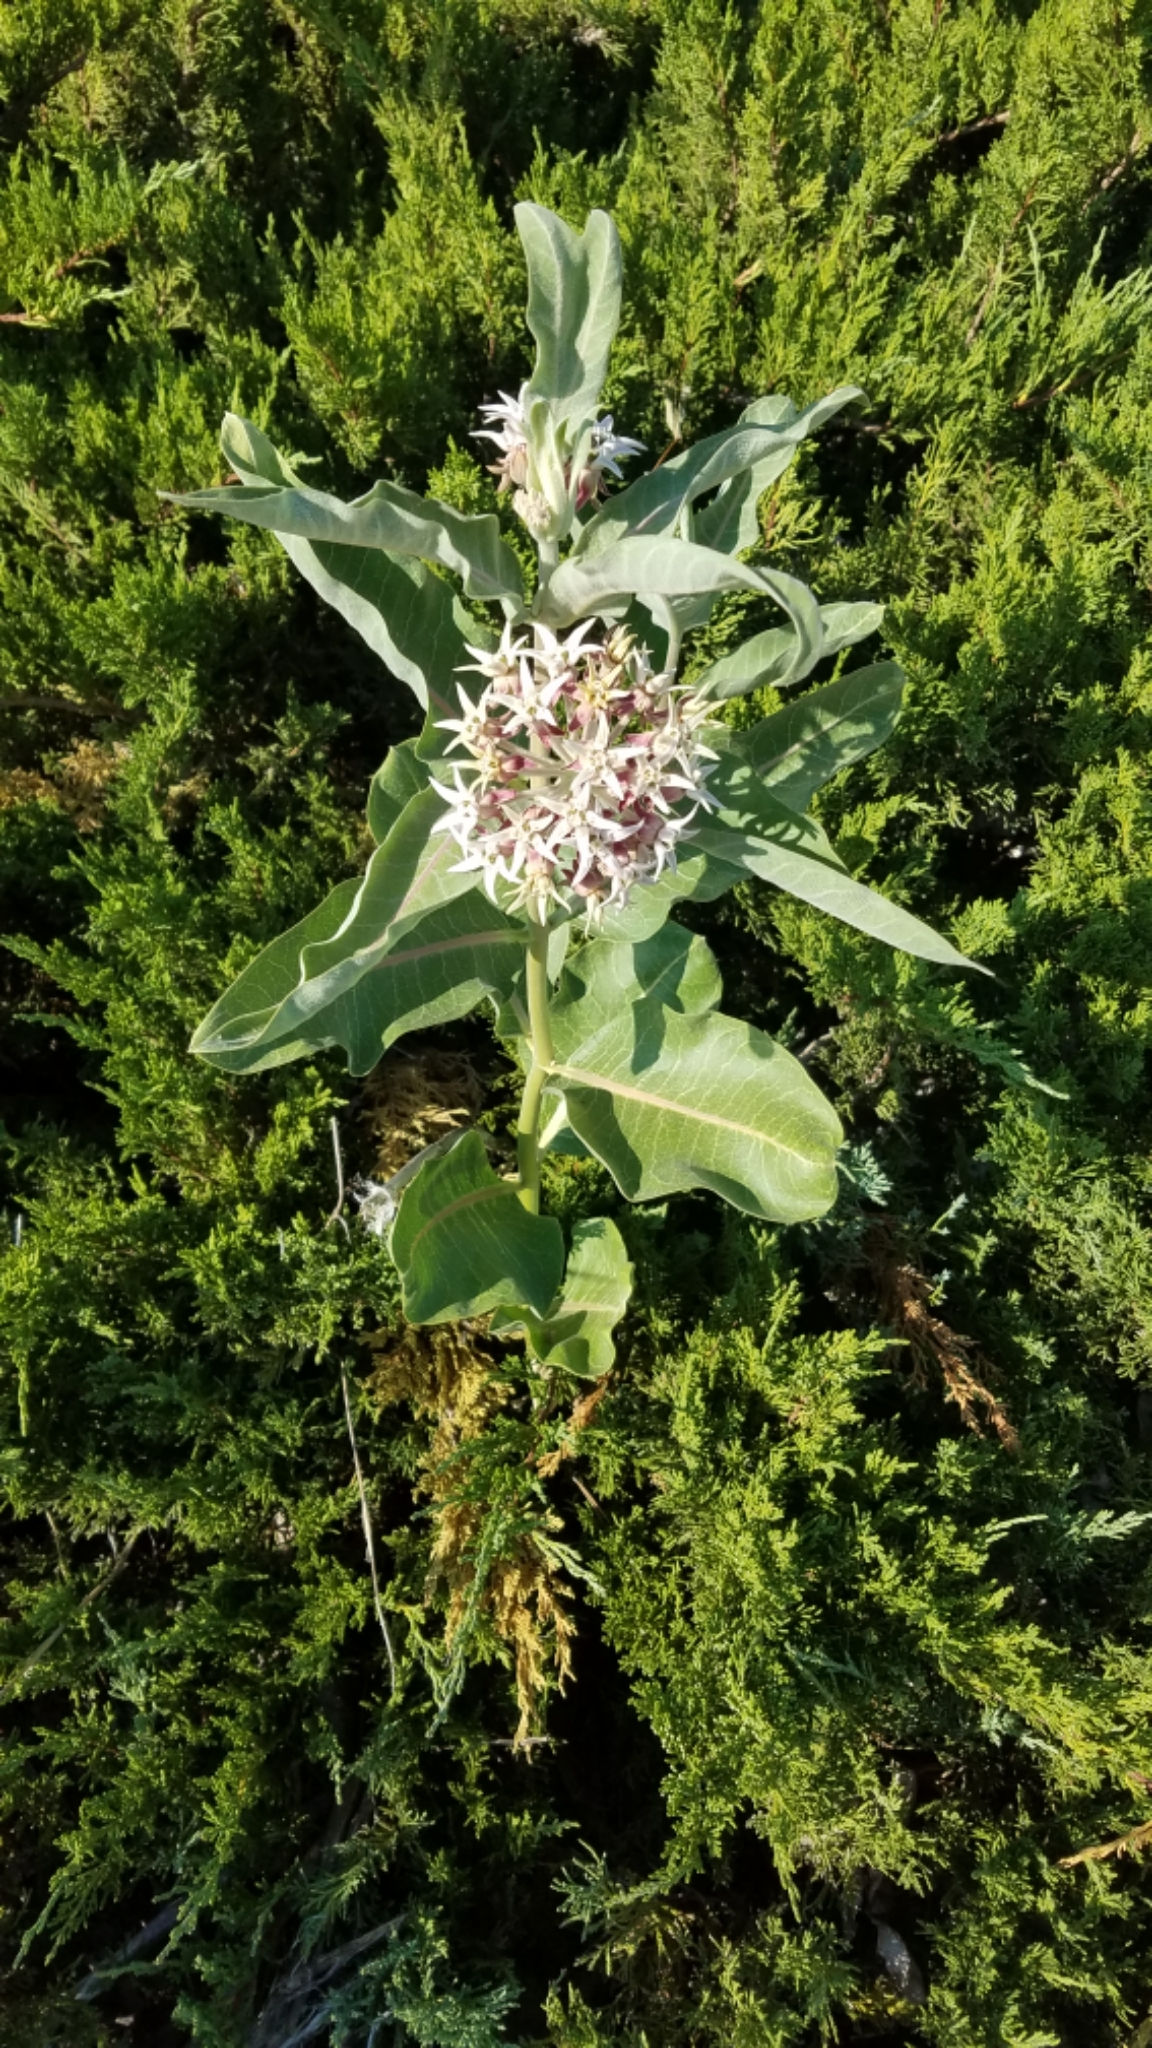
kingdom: Plantae
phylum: Tracheophyta
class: Magnoliopsida
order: Gentianales
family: Apocynaceae
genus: Asclepias
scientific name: Asclepias speciosa
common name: Showy milkweed
